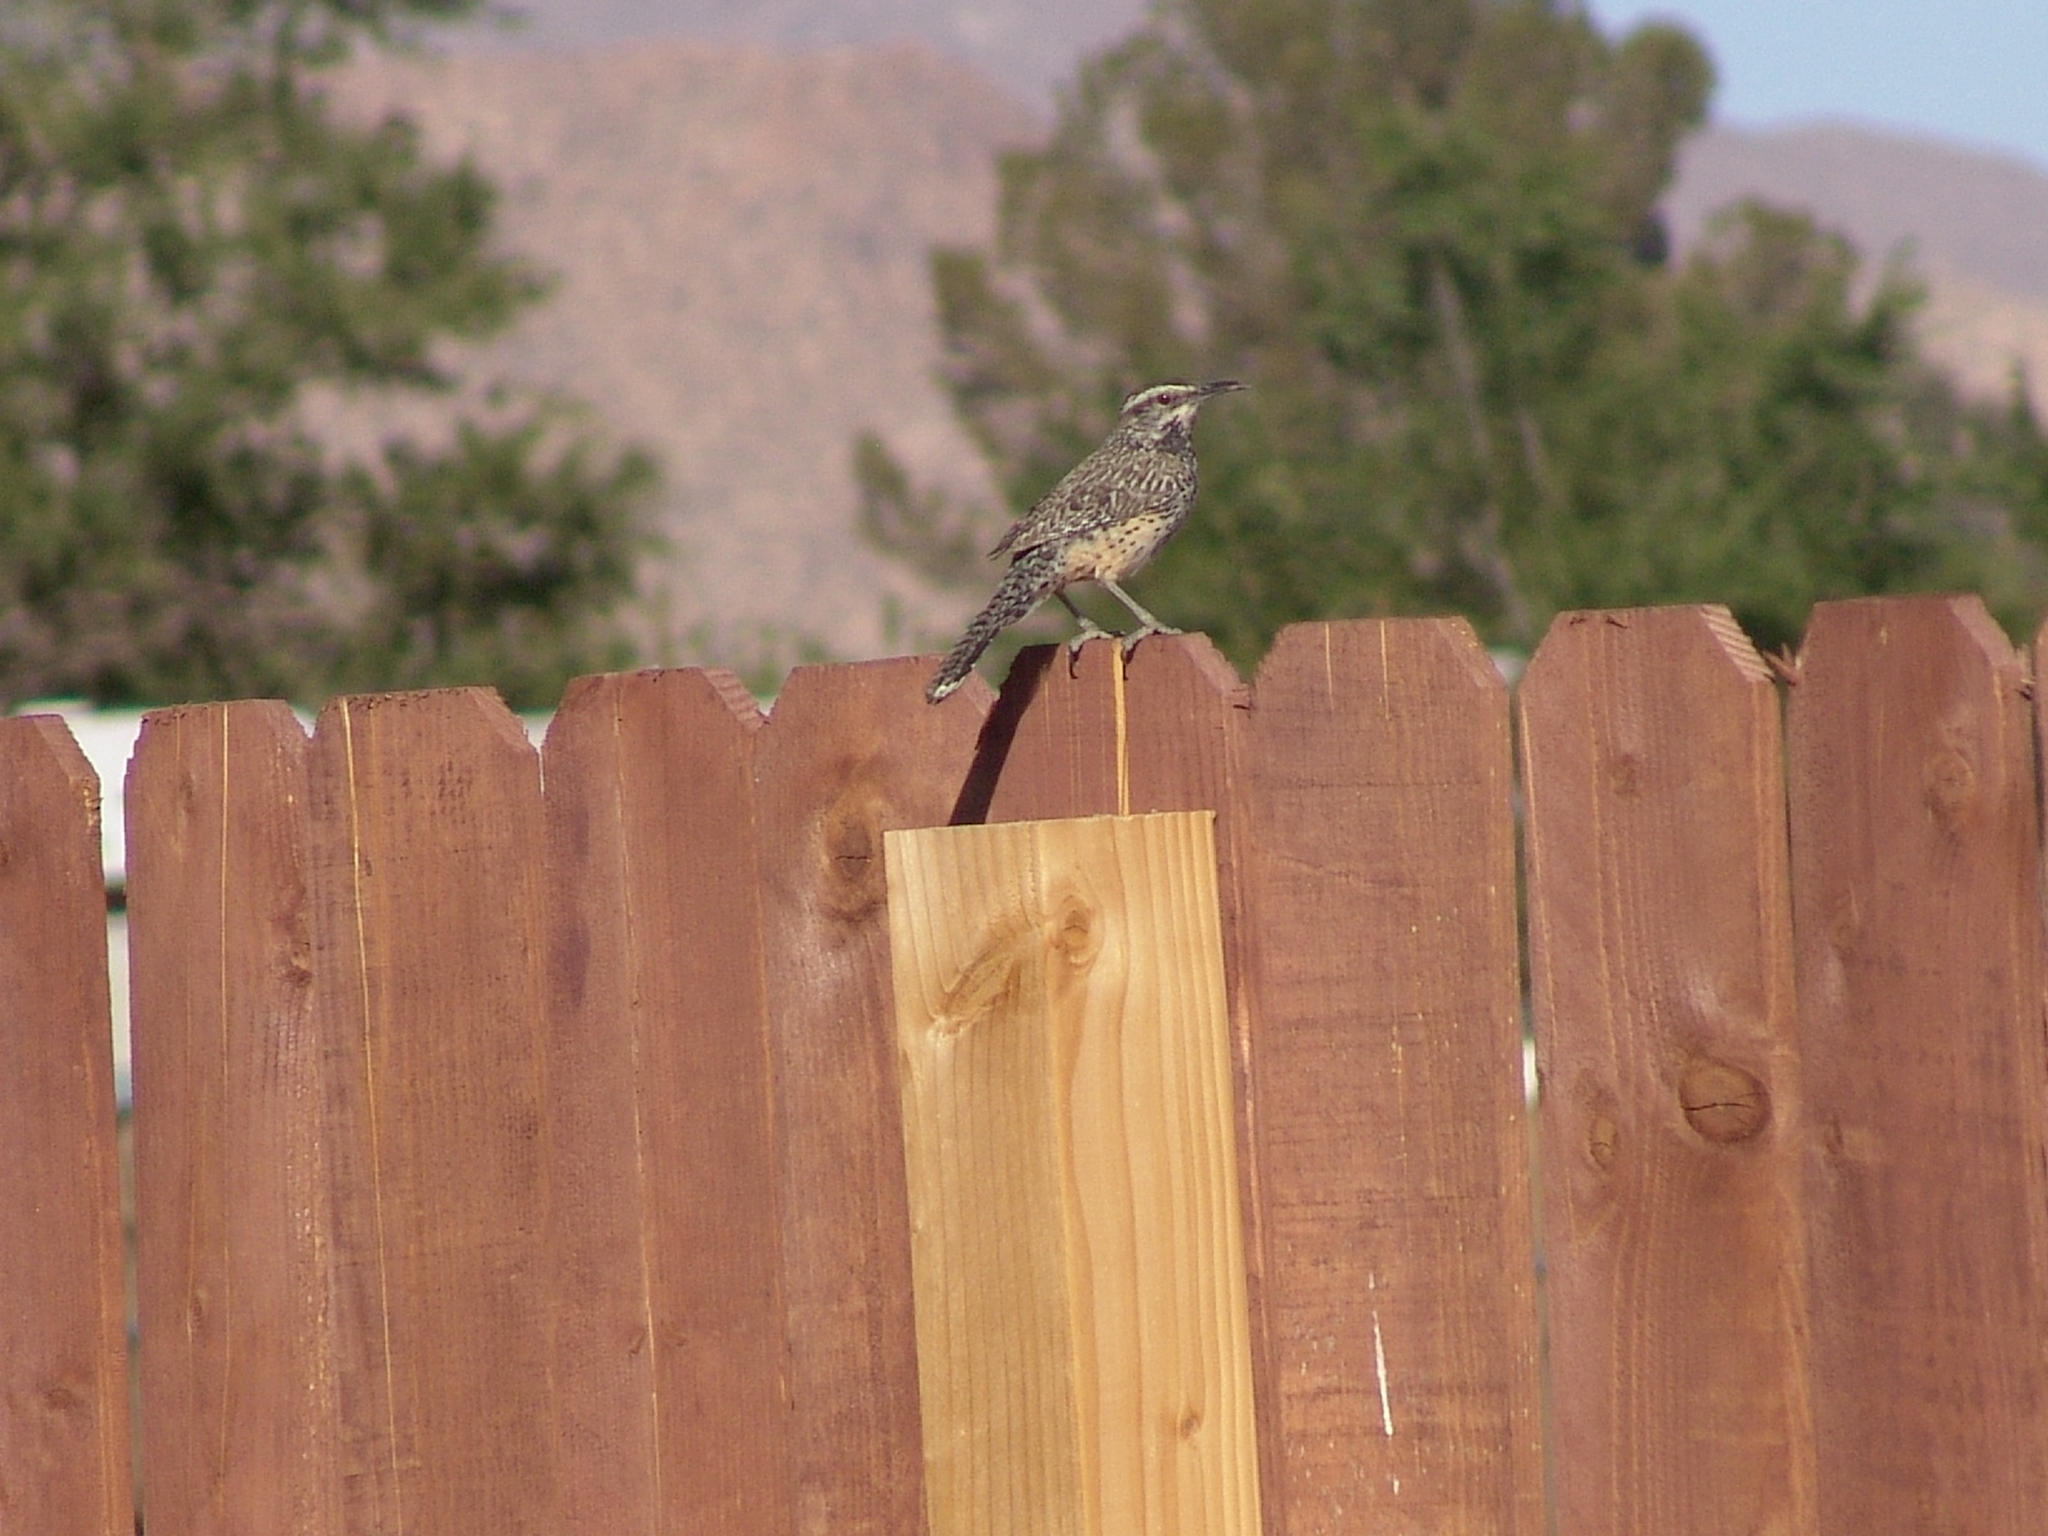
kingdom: Animalia
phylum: Chordata
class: Aves
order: Passeriformes
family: Troglodytidae
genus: Campylorhynchus
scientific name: Campylorhynchus brunneicapillus
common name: Cactus wren
